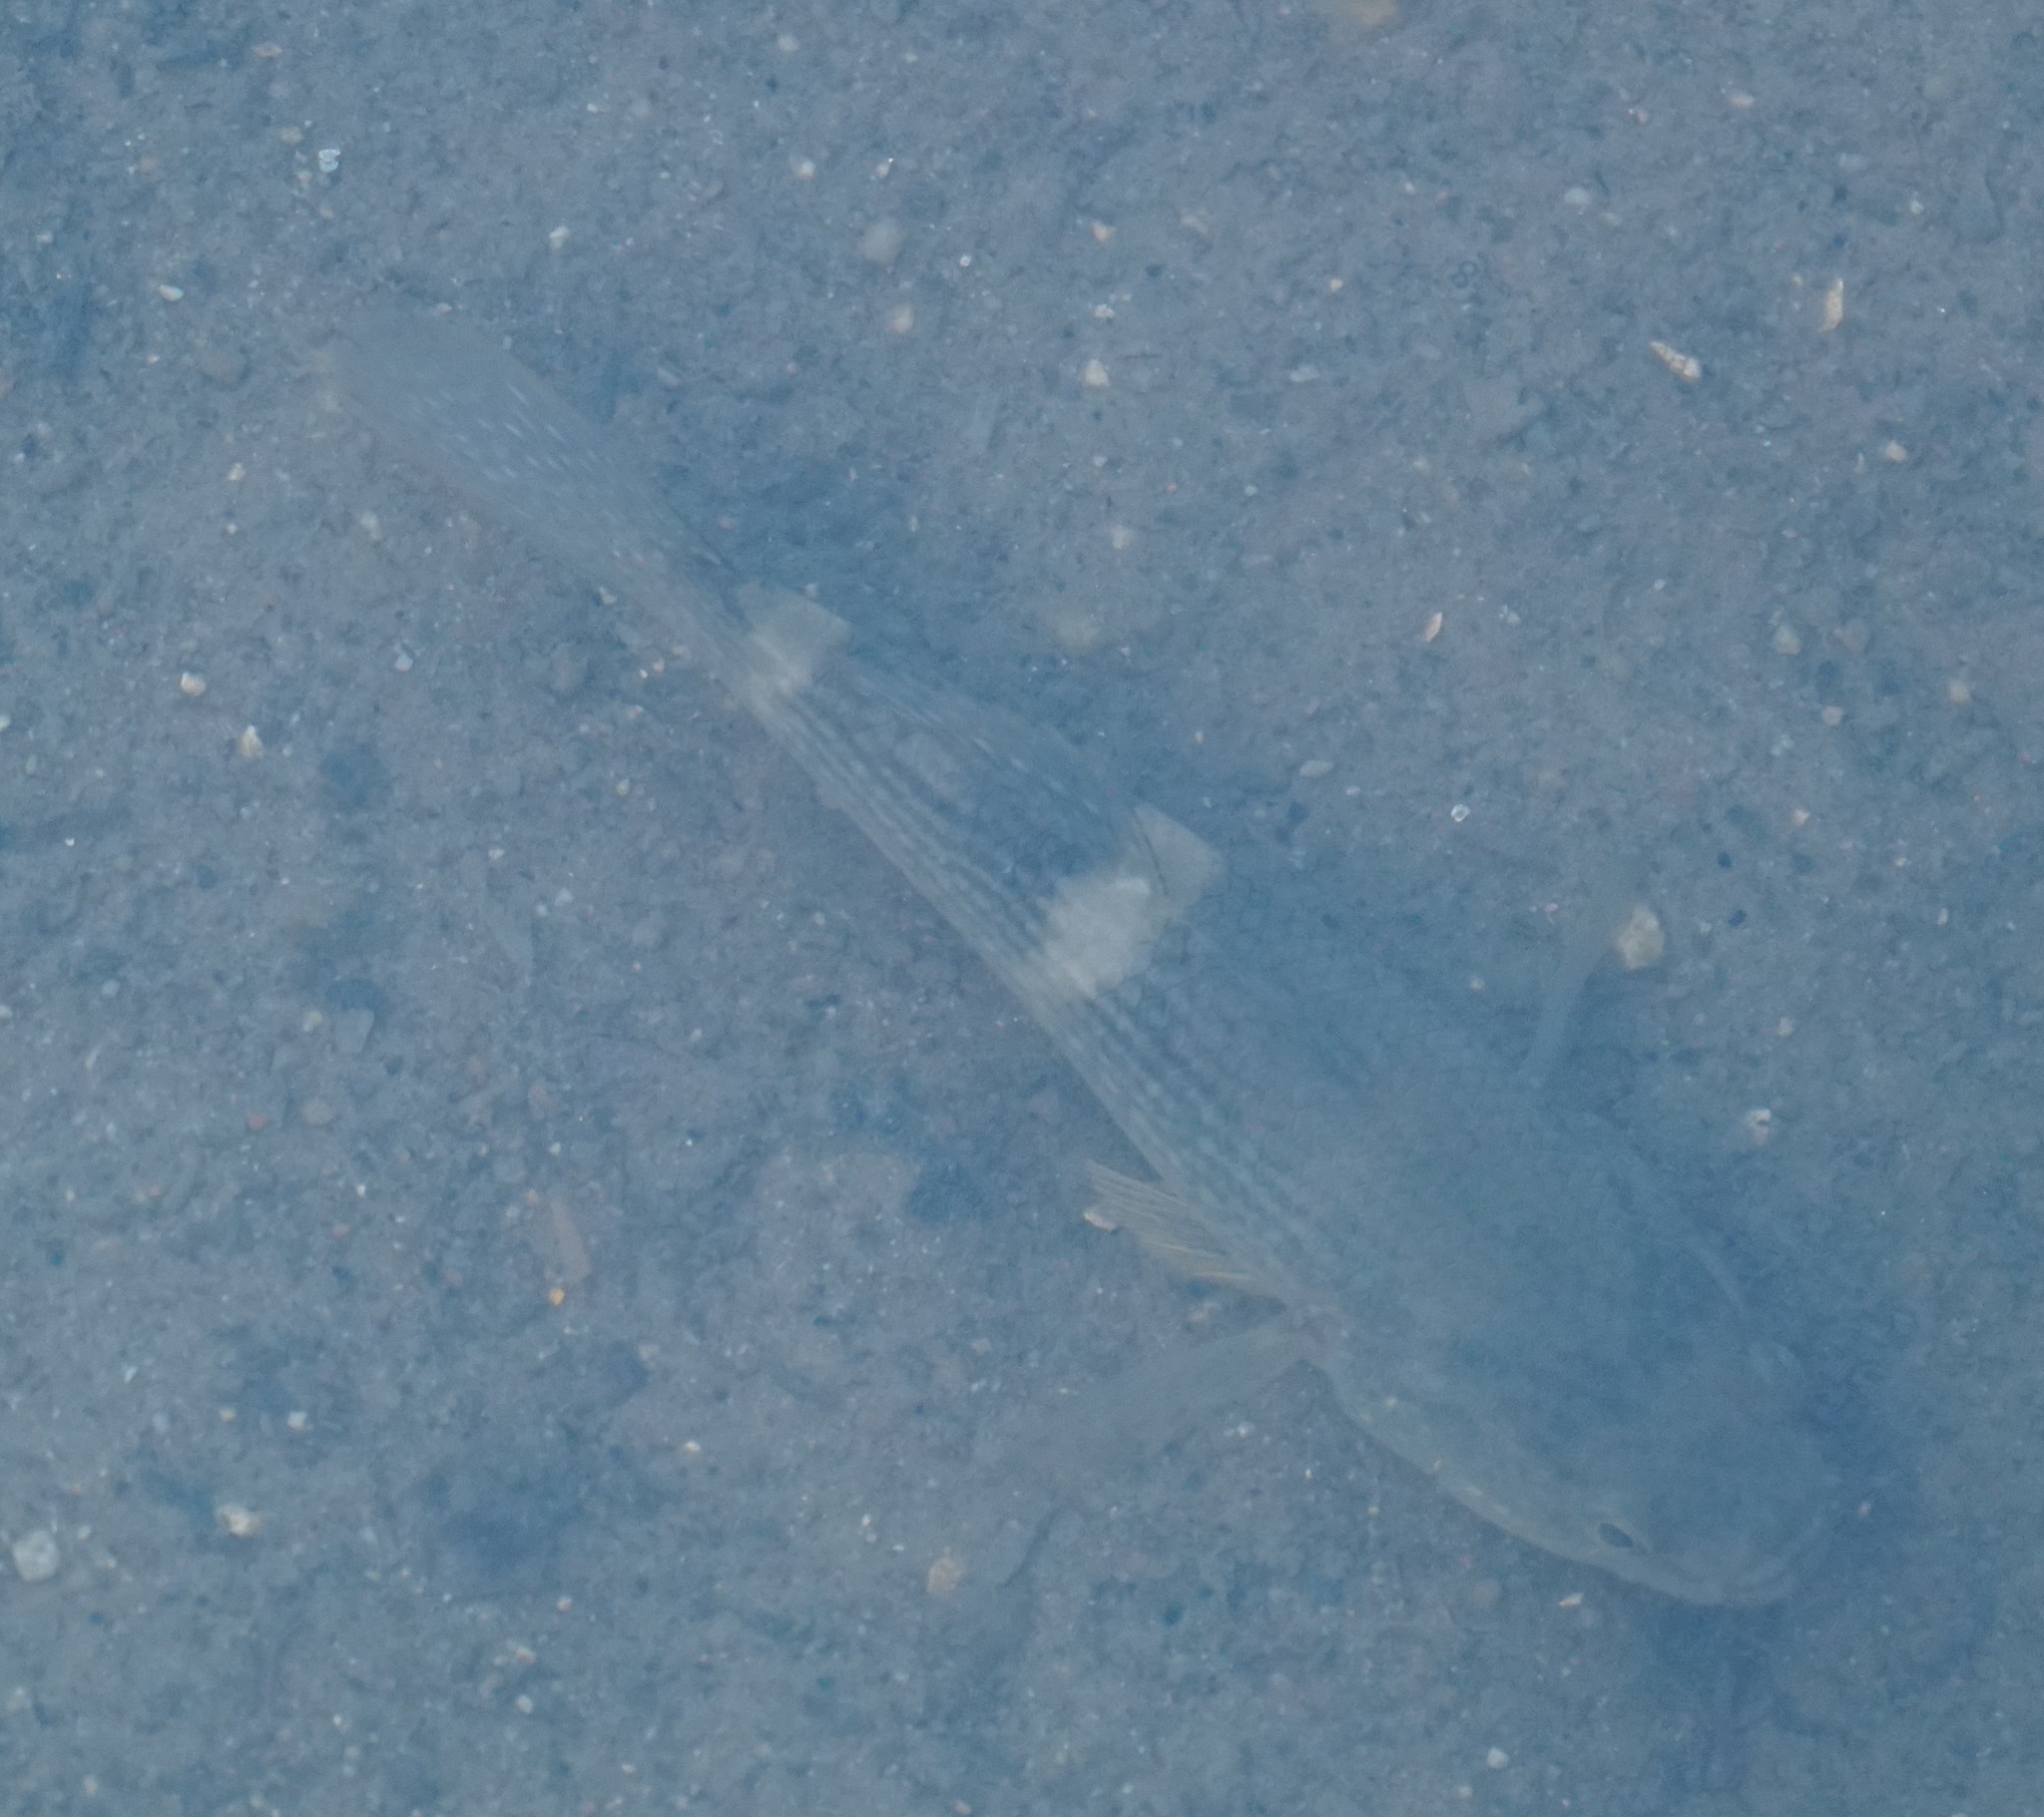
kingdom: Animalia
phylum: Chordata
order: Perciformes
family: Eleotridae
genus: Ophiocara
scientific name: Ophiocara porocephala
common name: Spangled gudgeon
